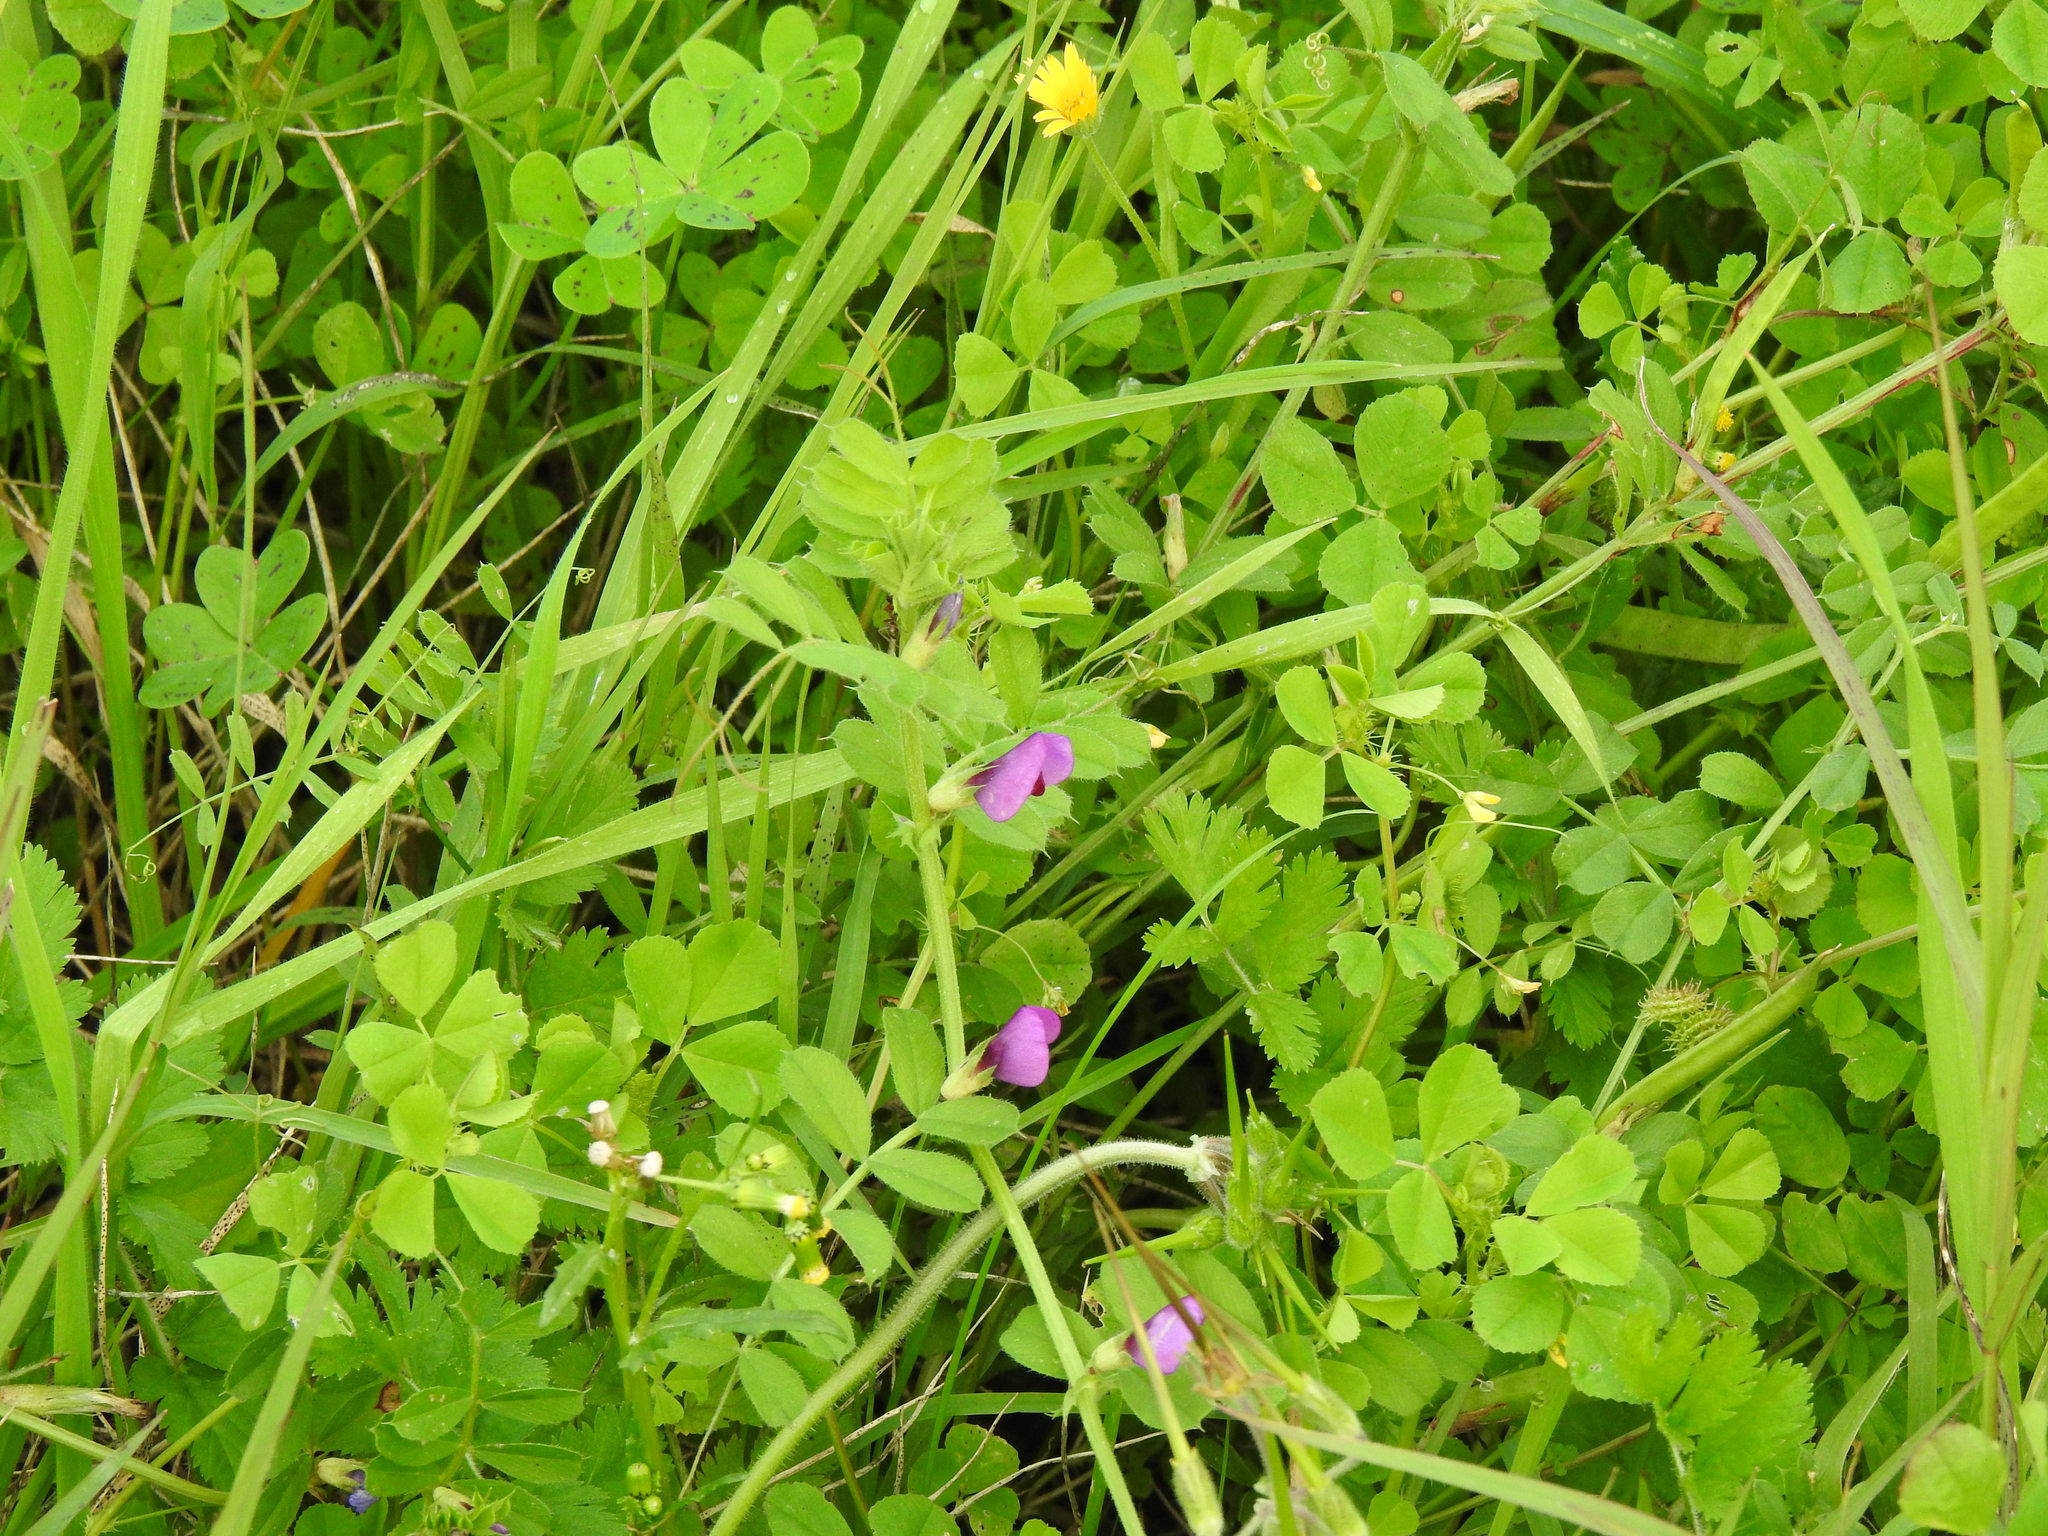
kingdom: Plantae
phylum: Tracheophyta
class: Magnoliopsida
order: Fabales
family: Fabaceae
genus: Vicia
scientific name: Vicia sativa
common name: Garden vetch
